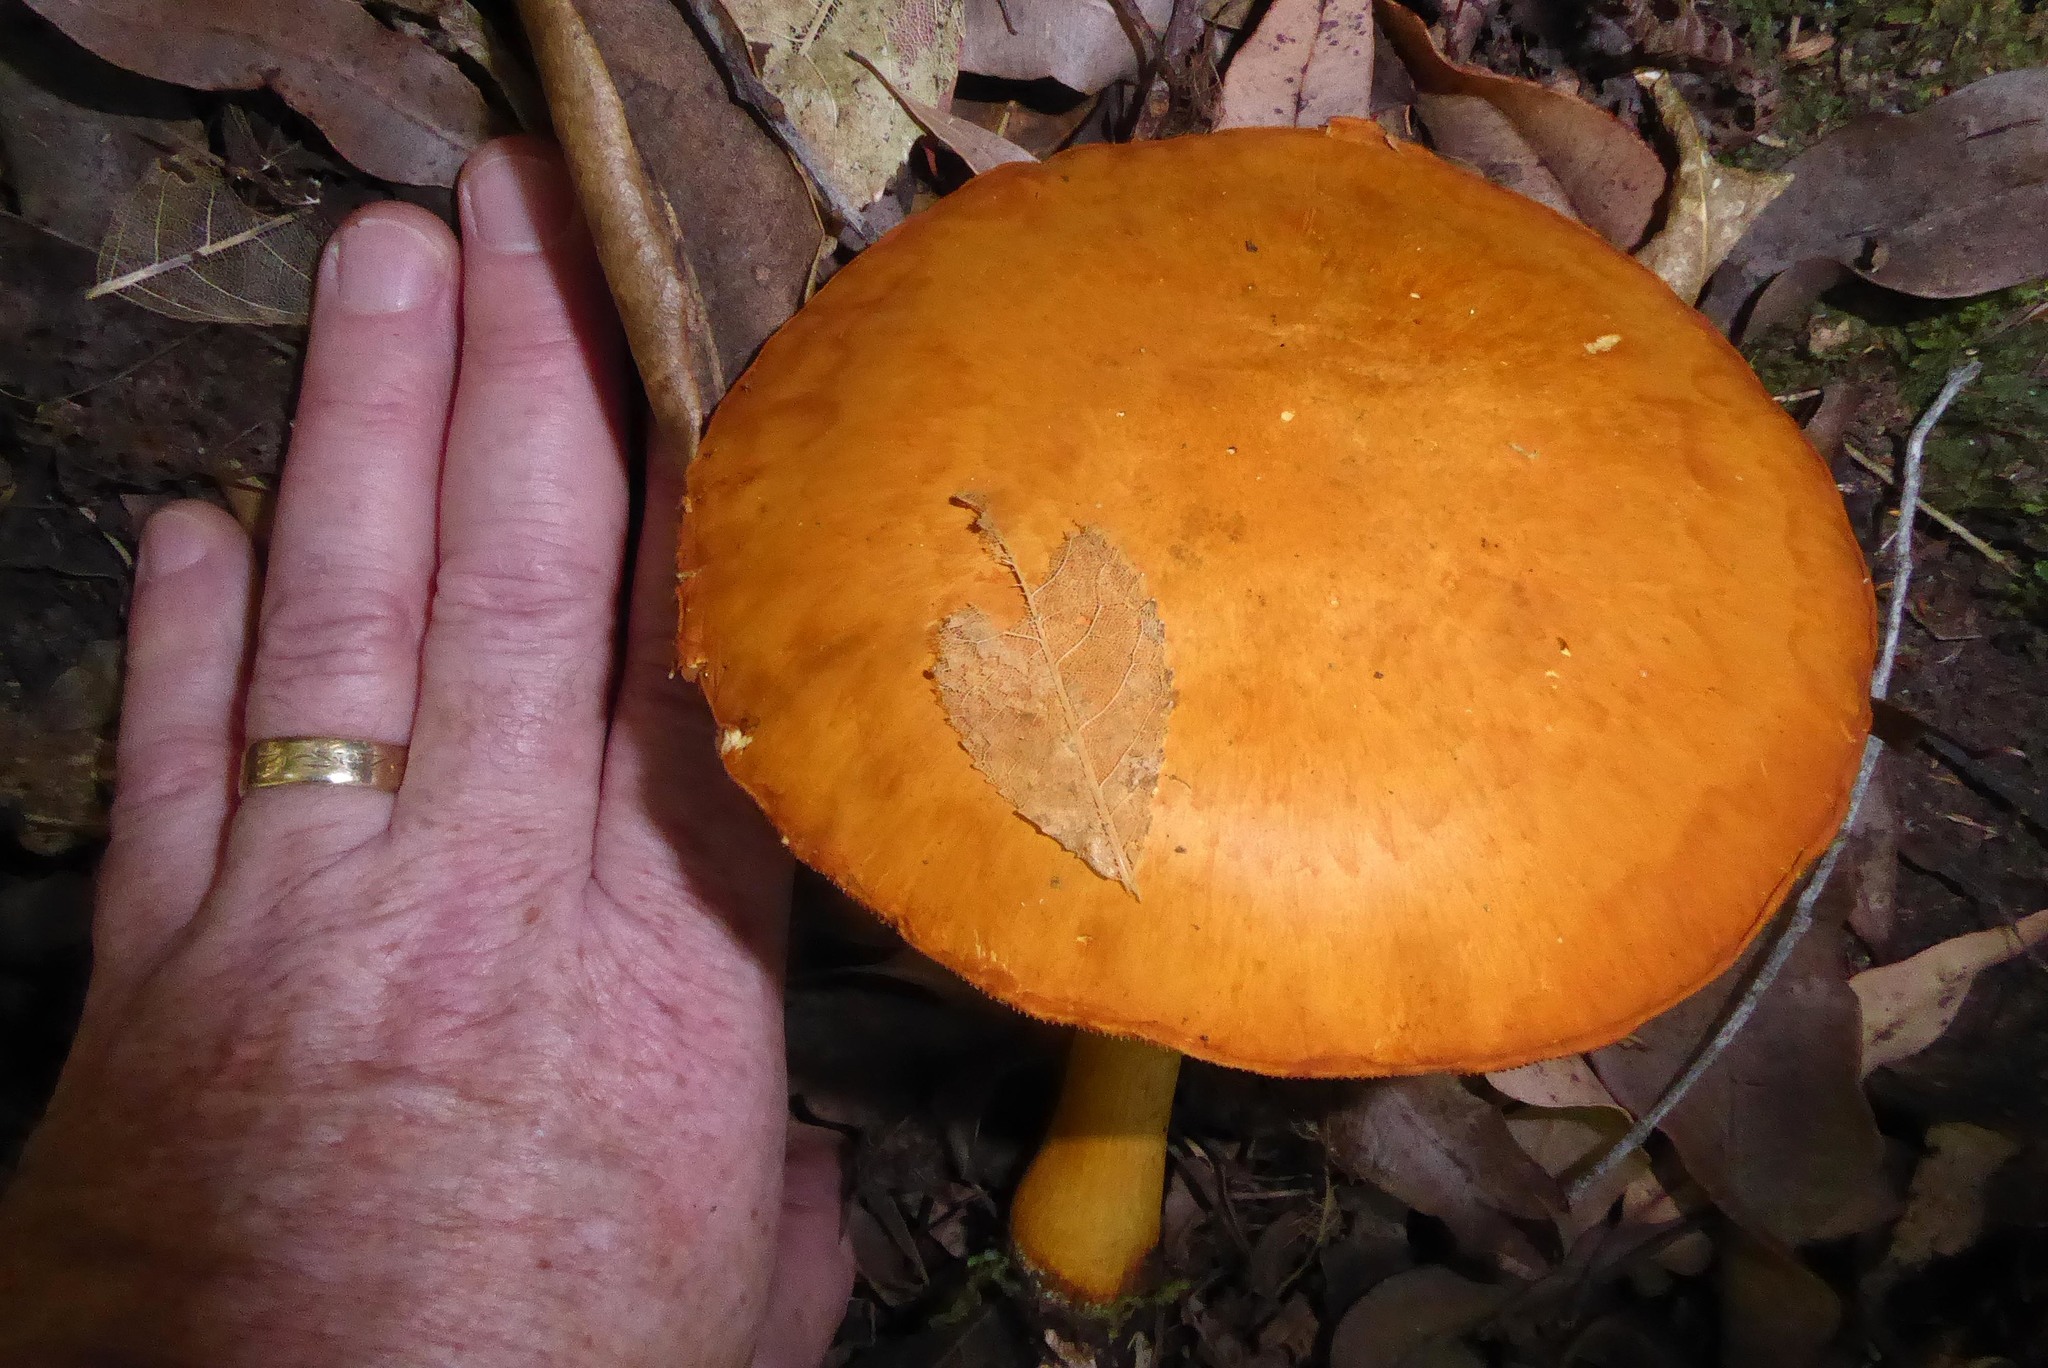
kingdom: Fungi
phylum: Basidiomycota
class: Agaricomycetes
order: Agaricales
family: Hymenogastraceae
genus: Gymnopilus
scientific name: Gymnopilus junonius
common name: Spectacular rustgill
